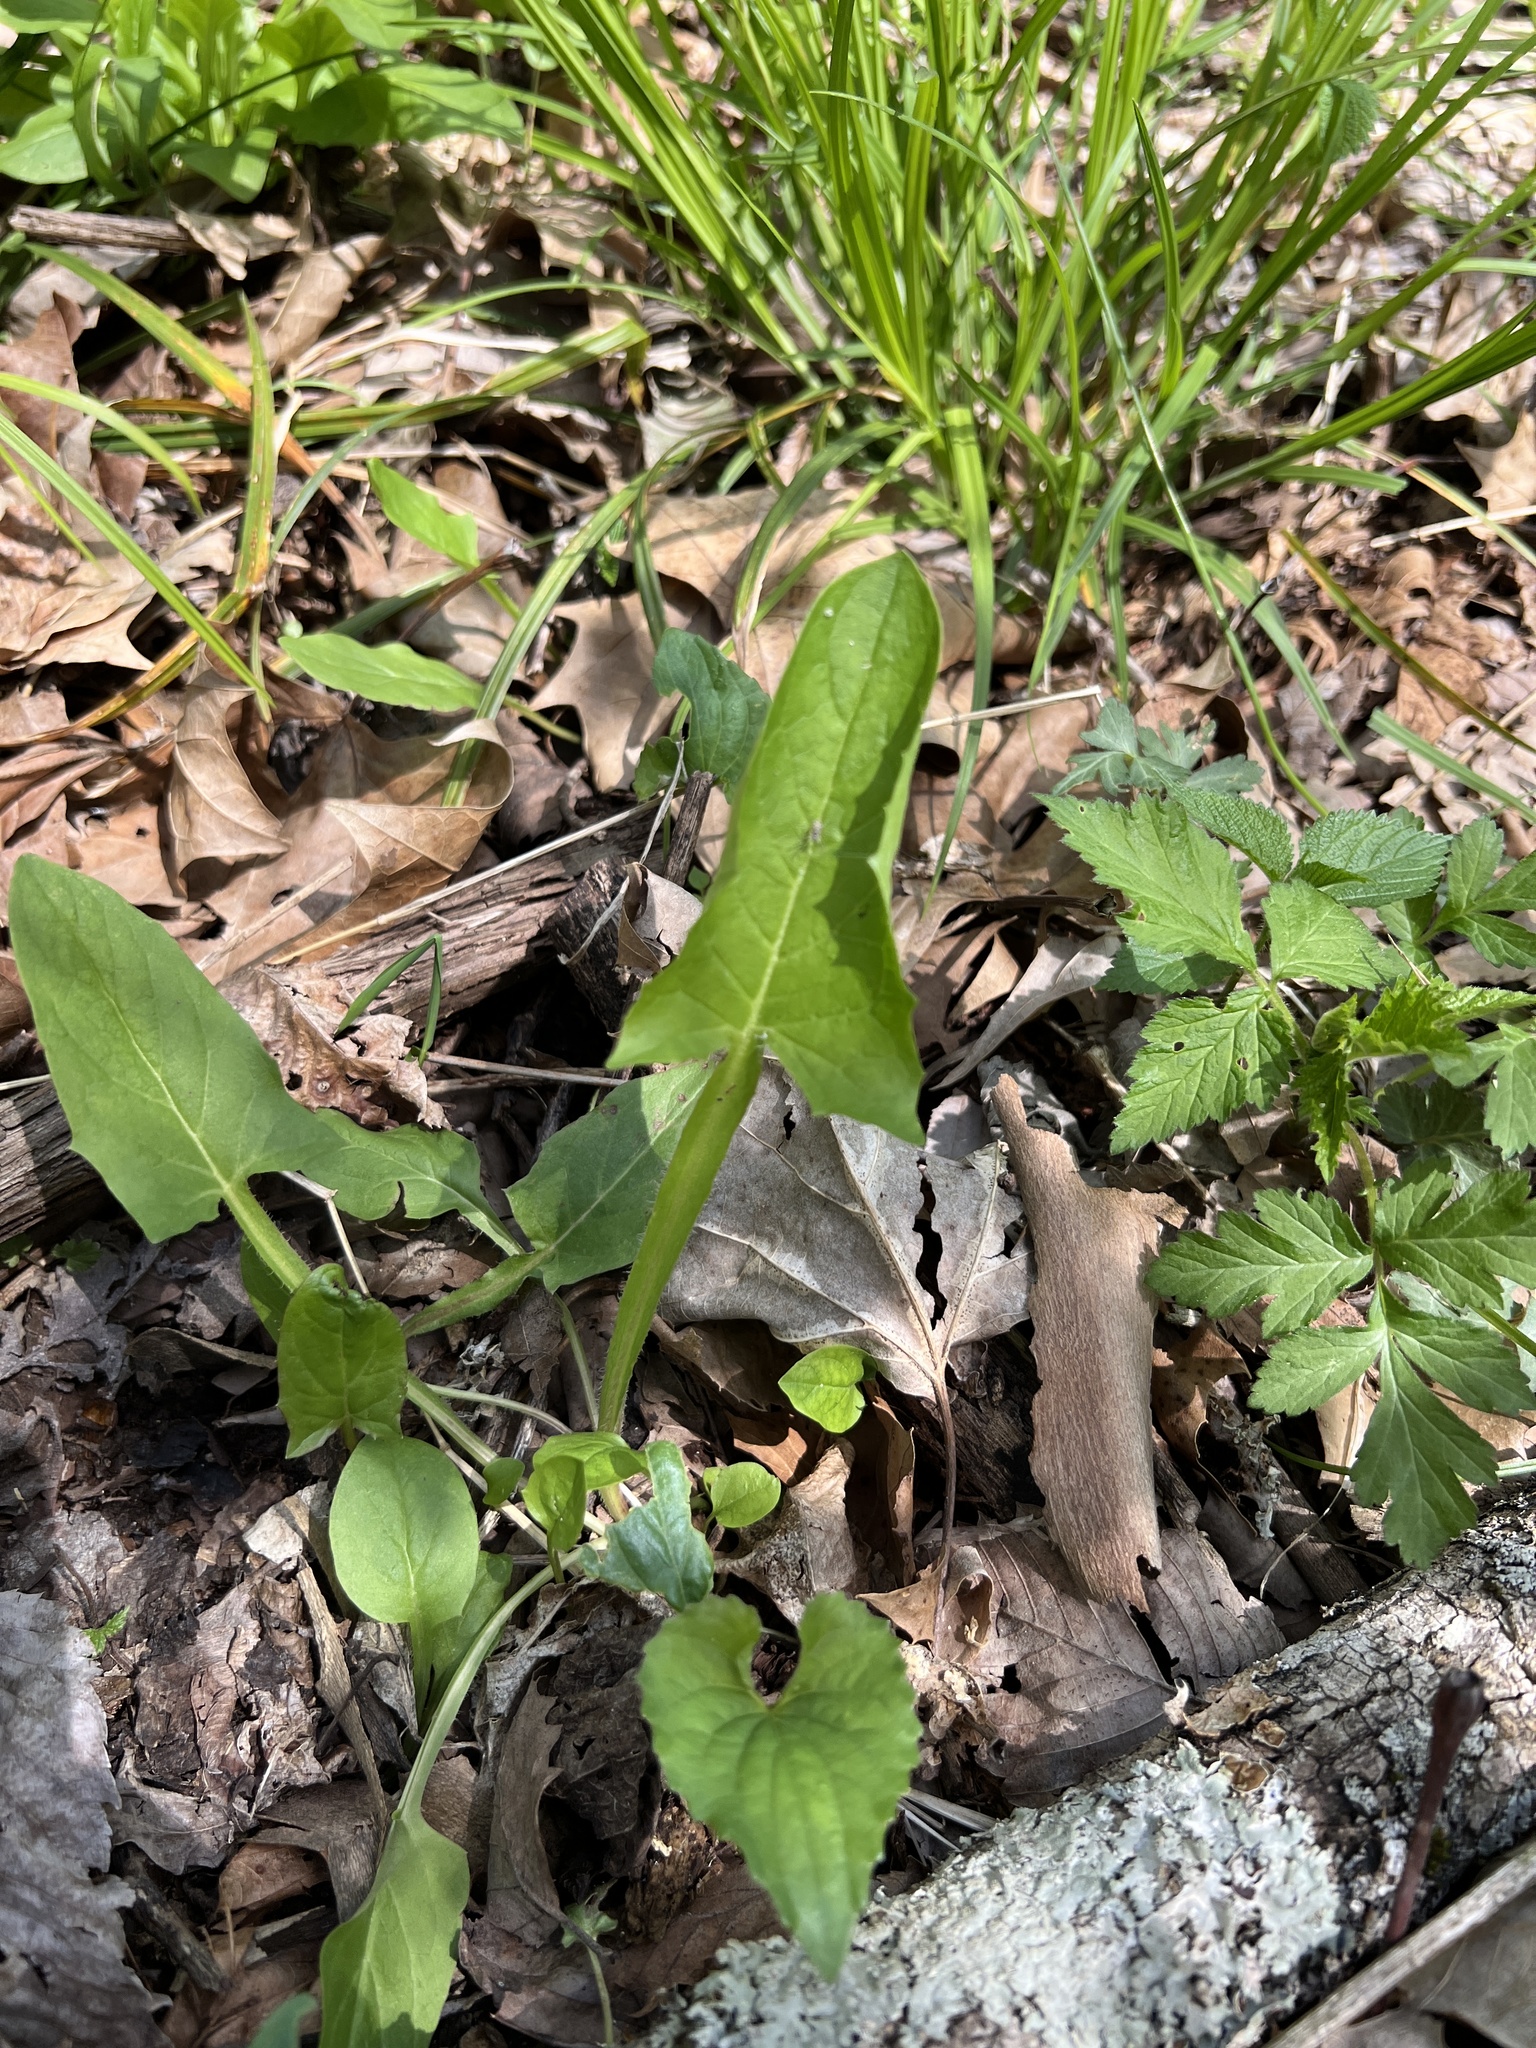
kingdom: Plantae
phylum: Tracheophyta
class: Magnoliopsida
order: Asterales
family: Asteraceae
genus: Nabalus
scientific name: Nabalus crepidineus
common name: Nodding rattlesnakeroot
